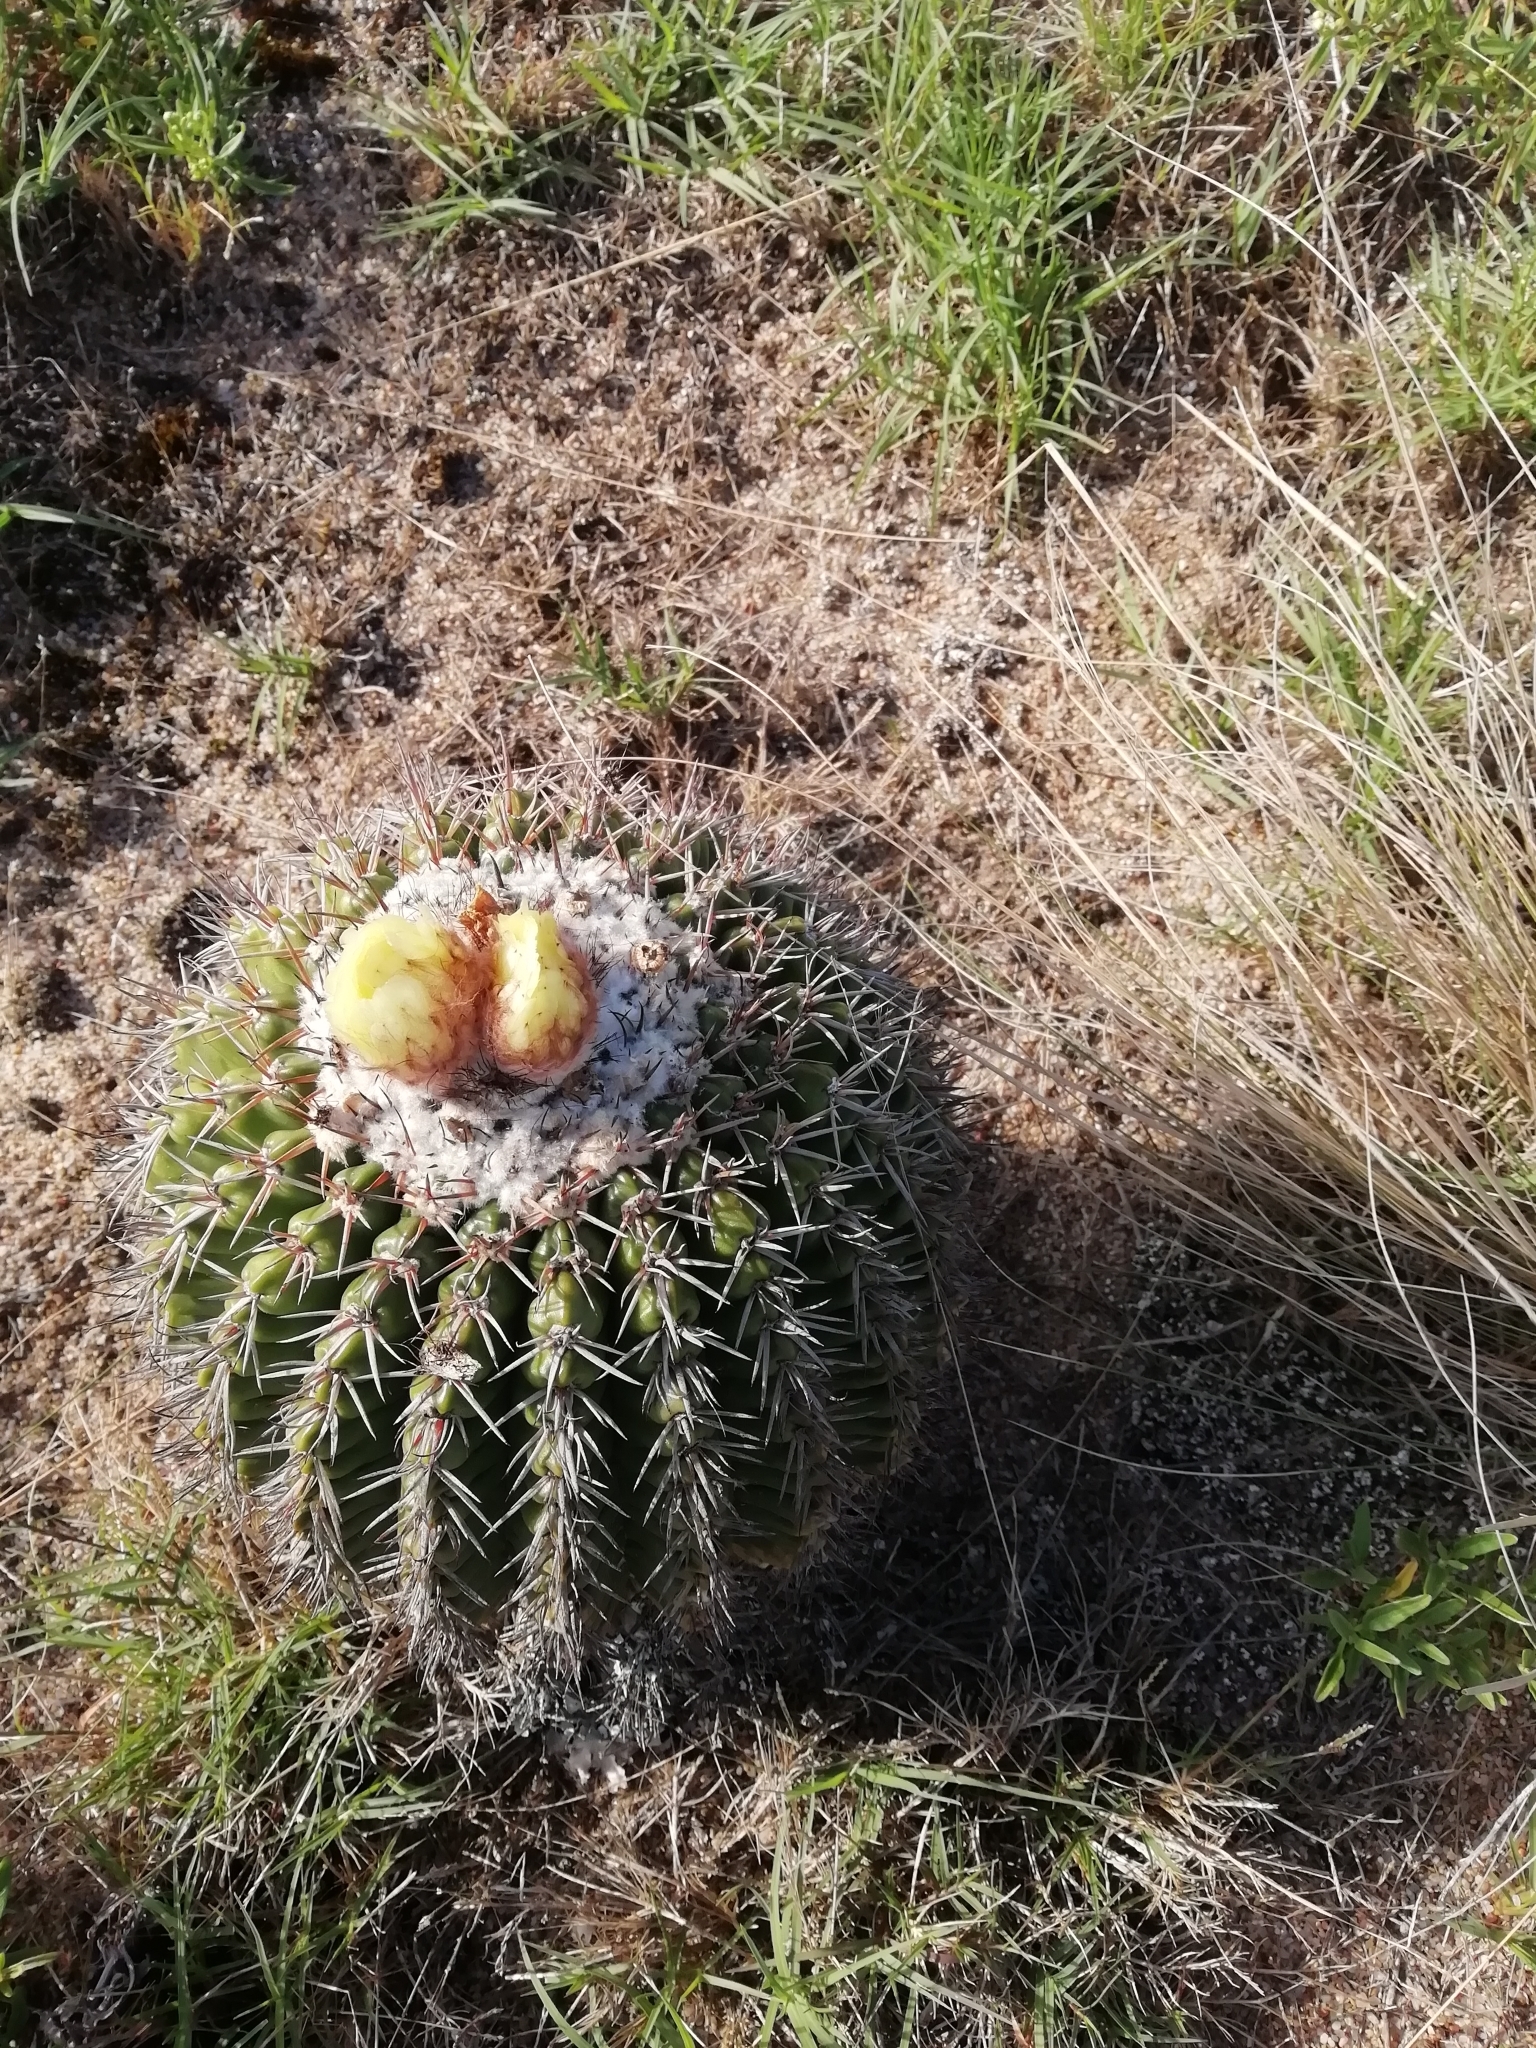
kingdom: Plantae
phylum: Tracheophyta
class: Magnoliopsida
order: Caryophyllales
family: Cactaceae
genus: Parodia
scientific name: Parodia erinacea
